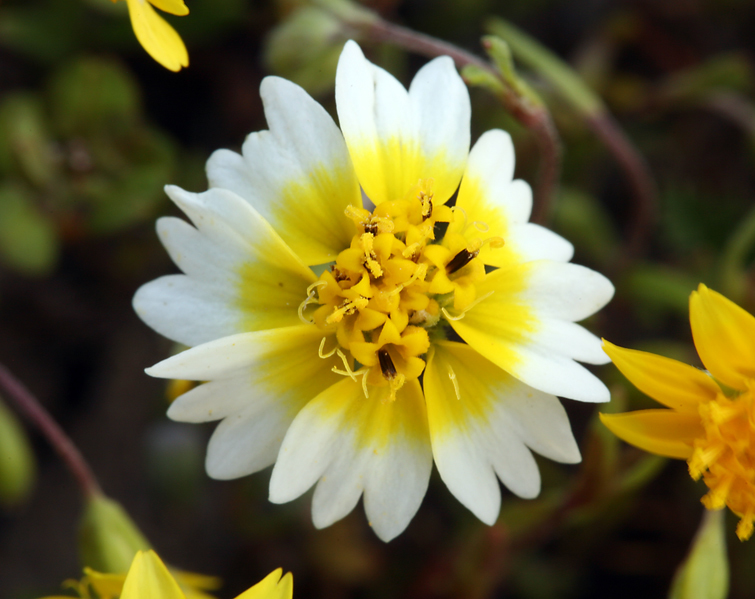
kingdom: Plantae
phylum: Tracheophyta
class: Magnoliopsida
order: Asterales
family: Asteraceae
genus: Layia
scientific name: Layia munzii
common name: Munz's tidy-tips
